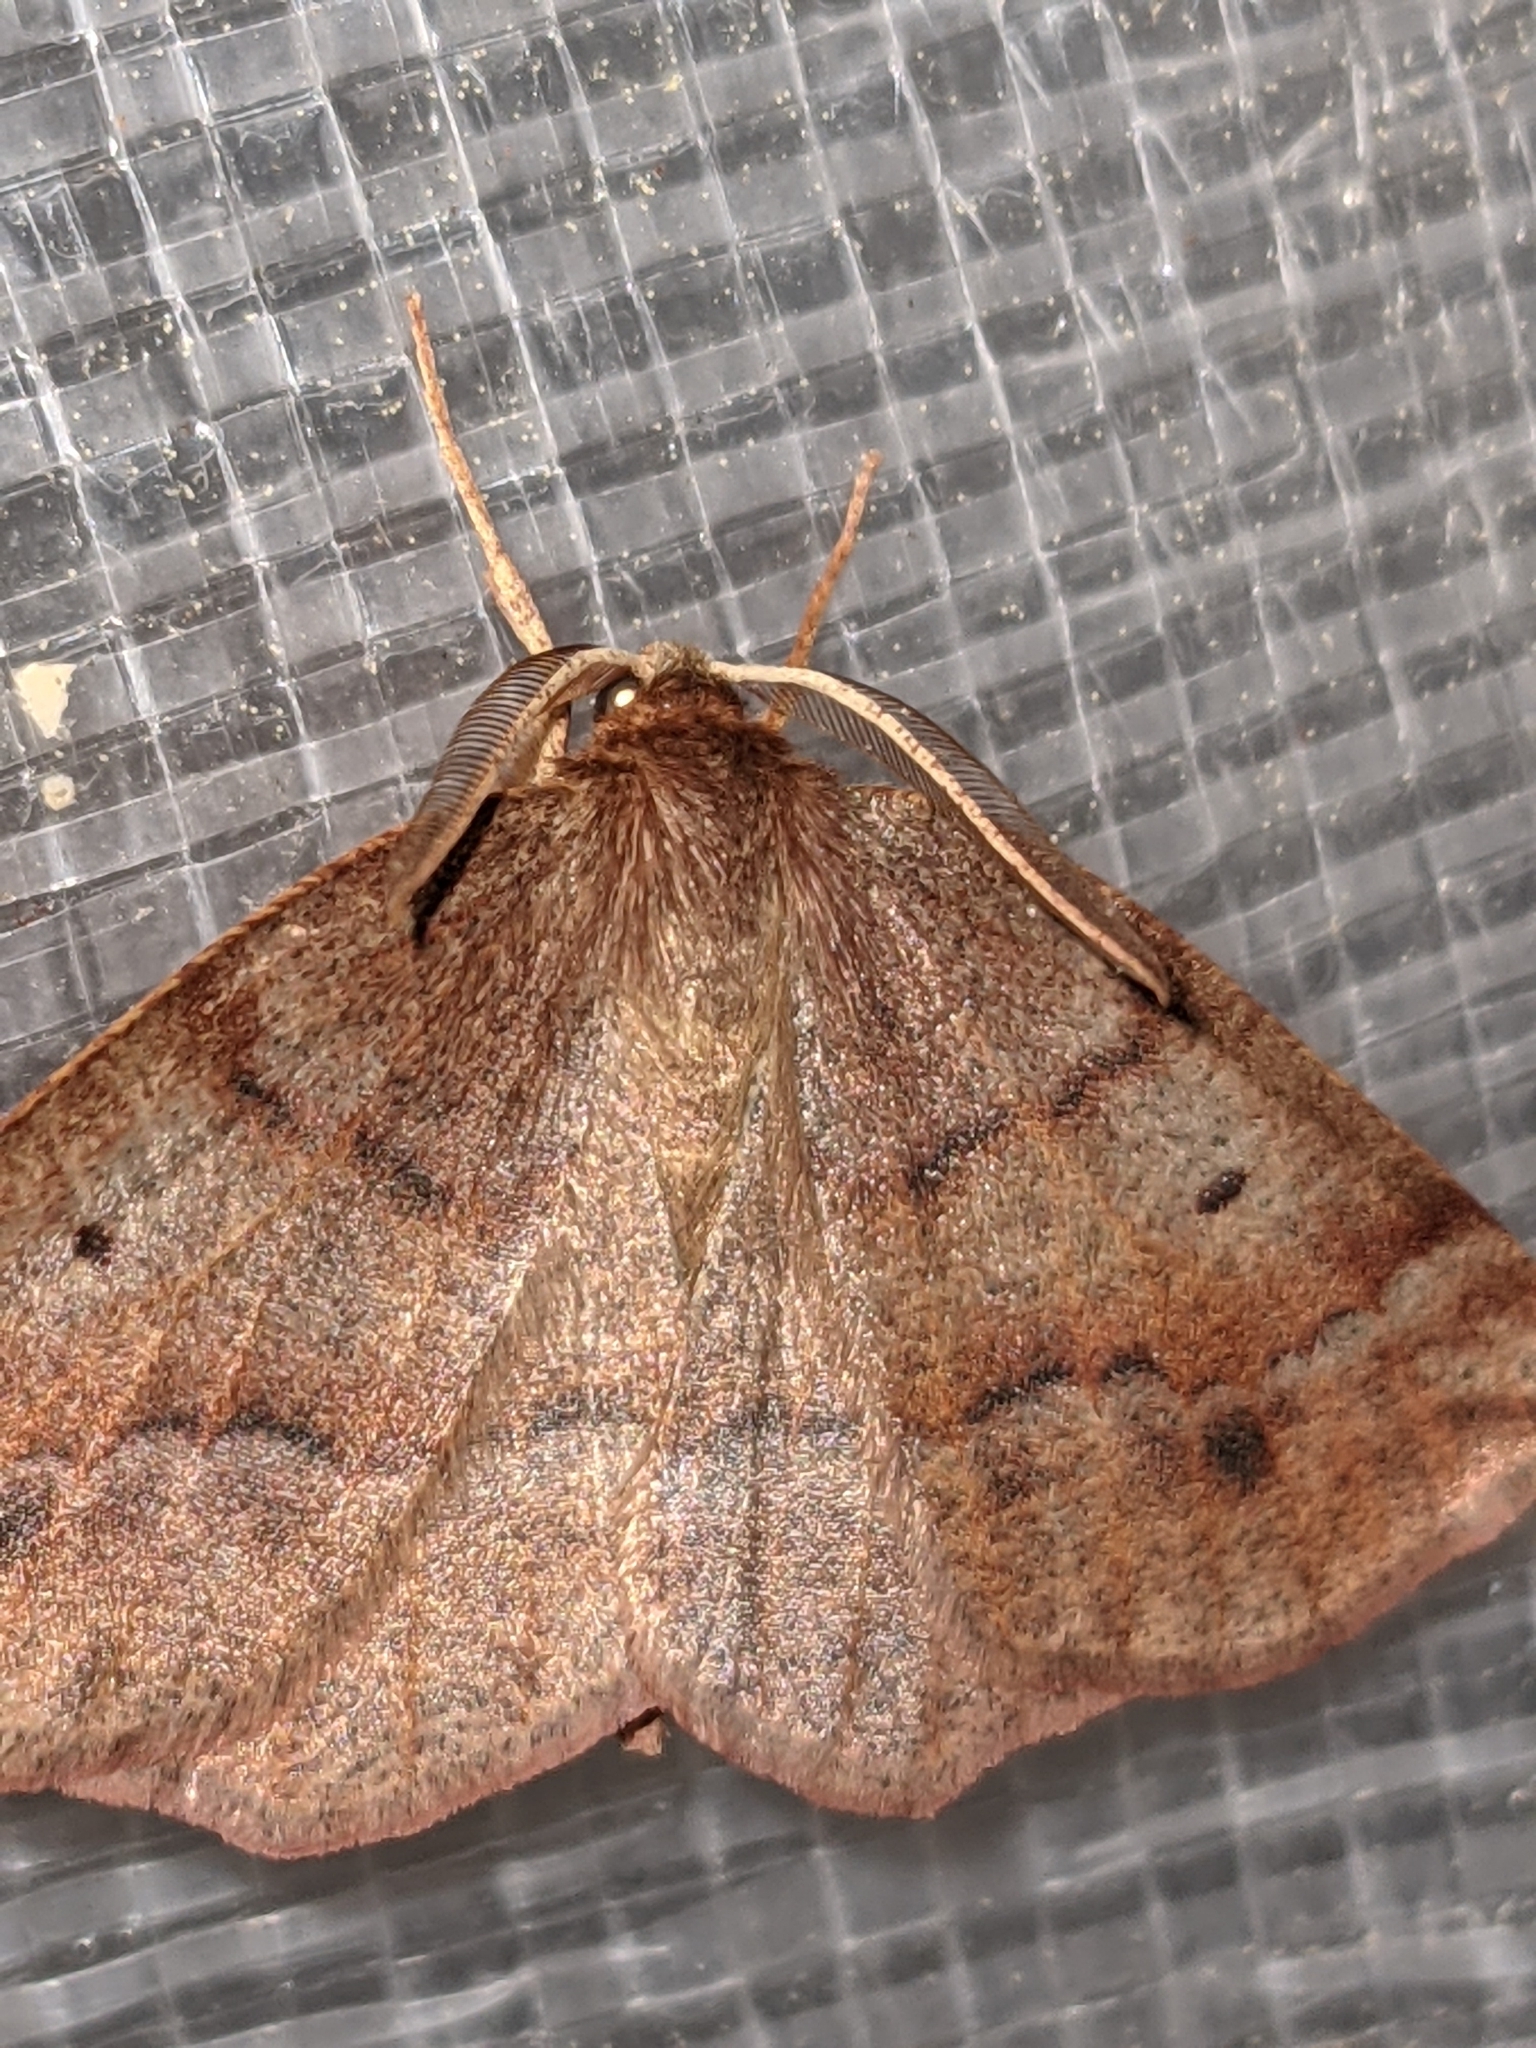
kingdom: Animalia
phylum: Arthropoda
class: Insecta
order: Lepidoptera
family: Geometridae
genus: Metarranthis
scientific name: Metarranthis duaria
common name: Ruddy metarranthis moth
